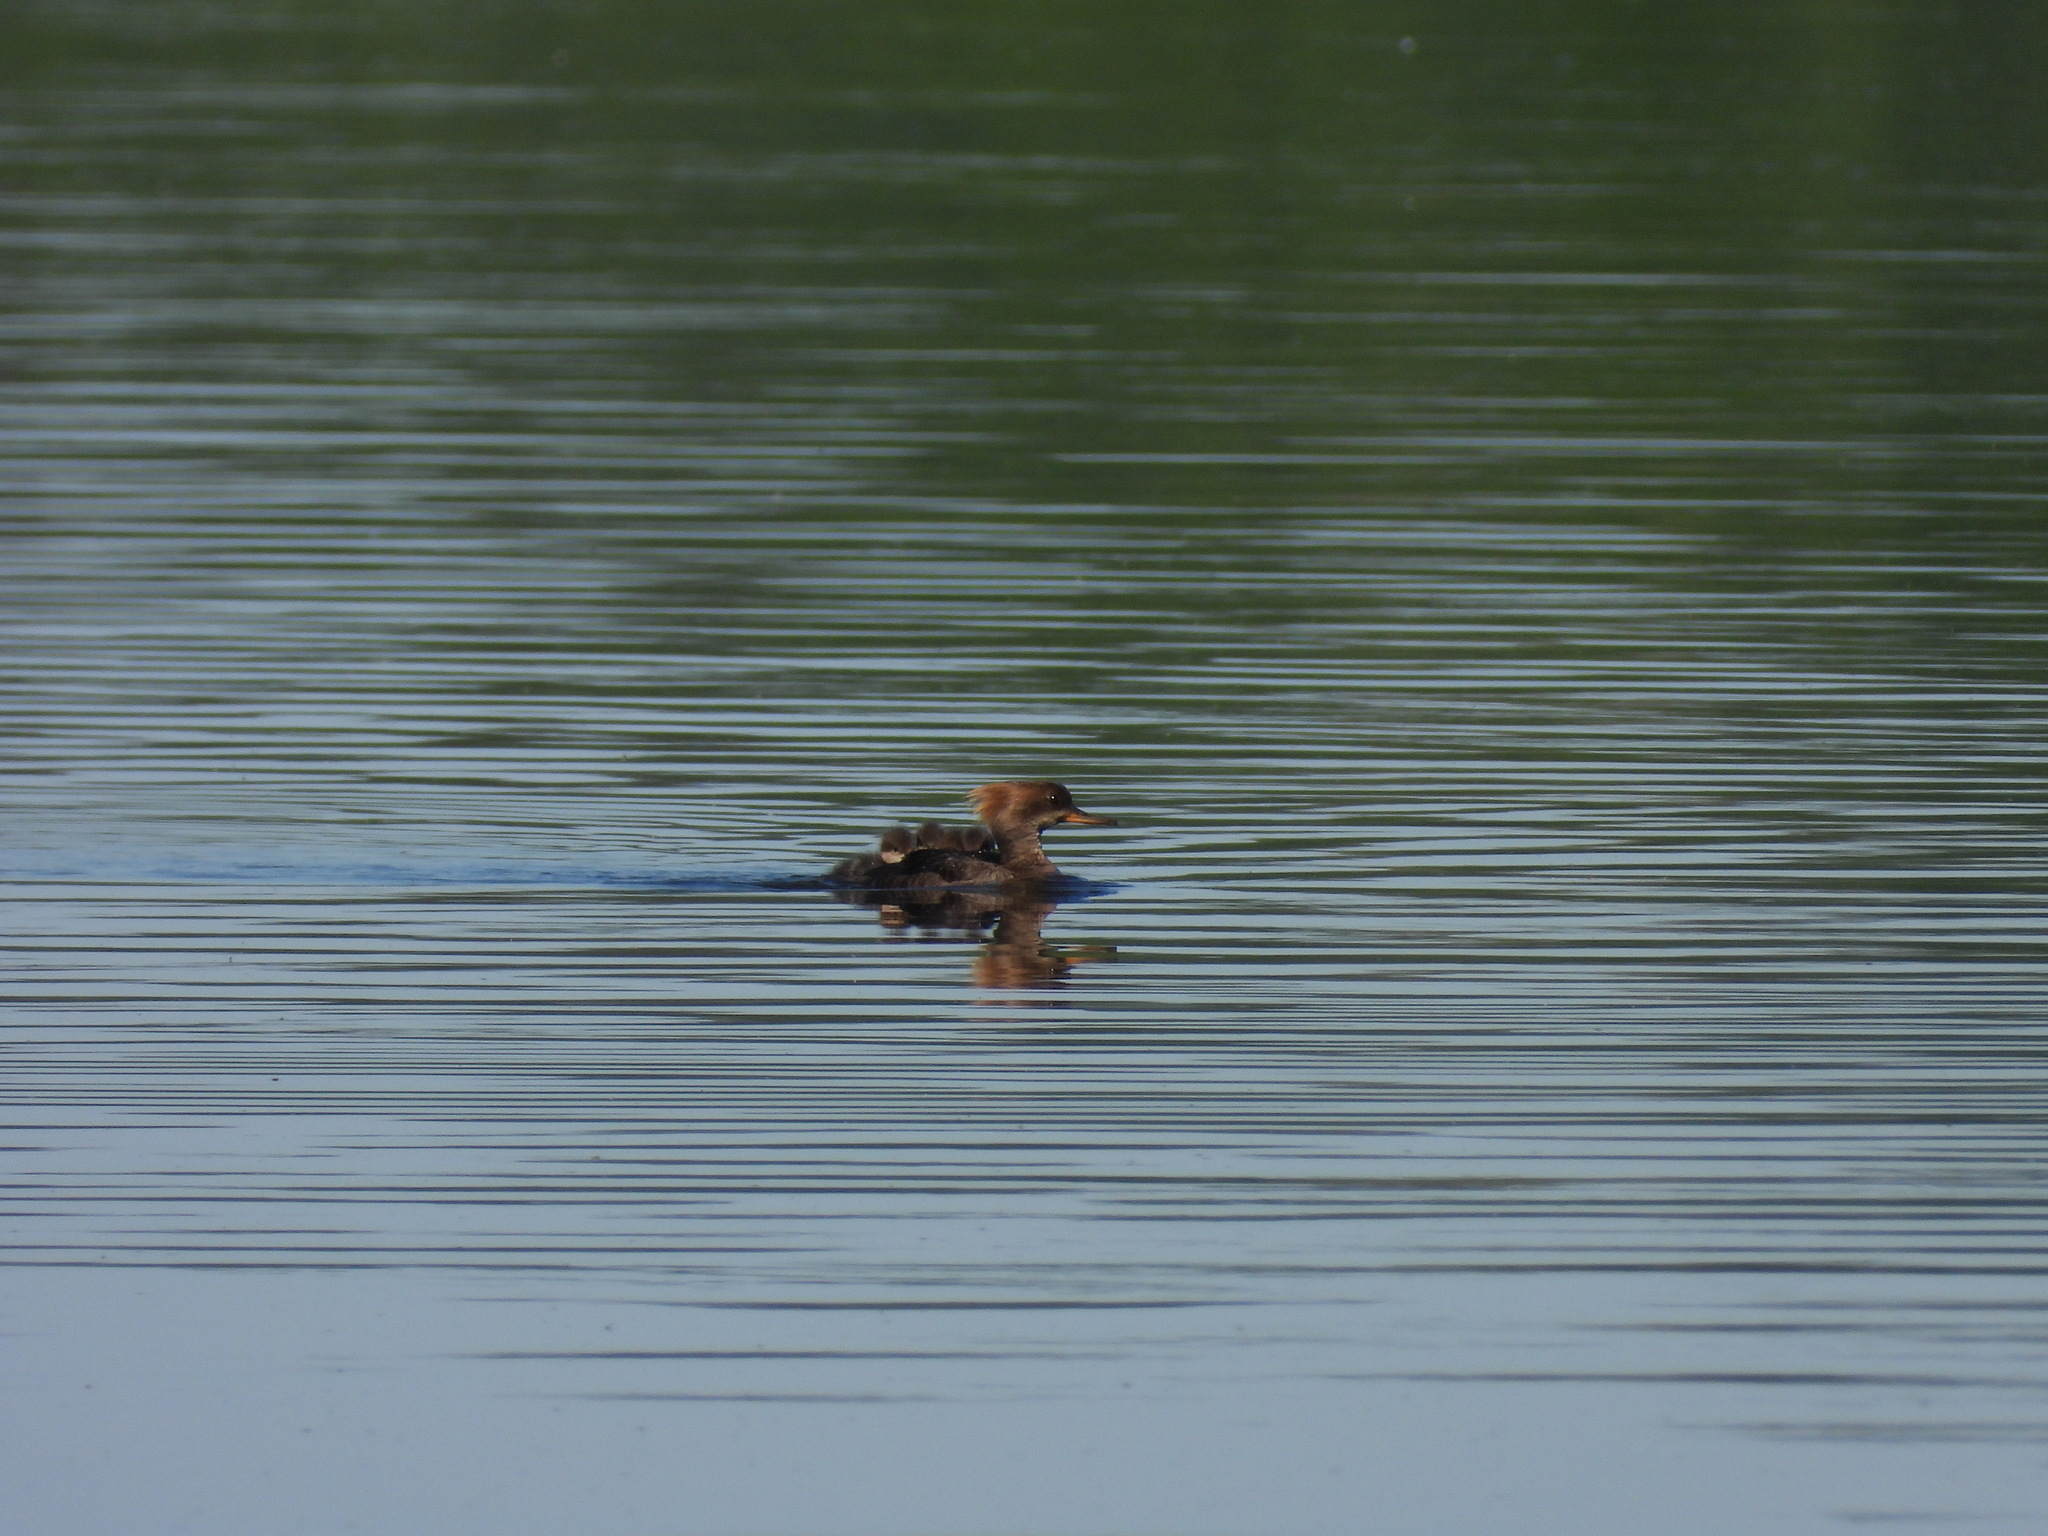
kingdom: Animalia
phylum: Chordata
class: Aves
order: Anseriformes
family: Anatidae
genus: Lophodytes
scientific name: Lophodytes cucullatus
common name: Hooded merganser
